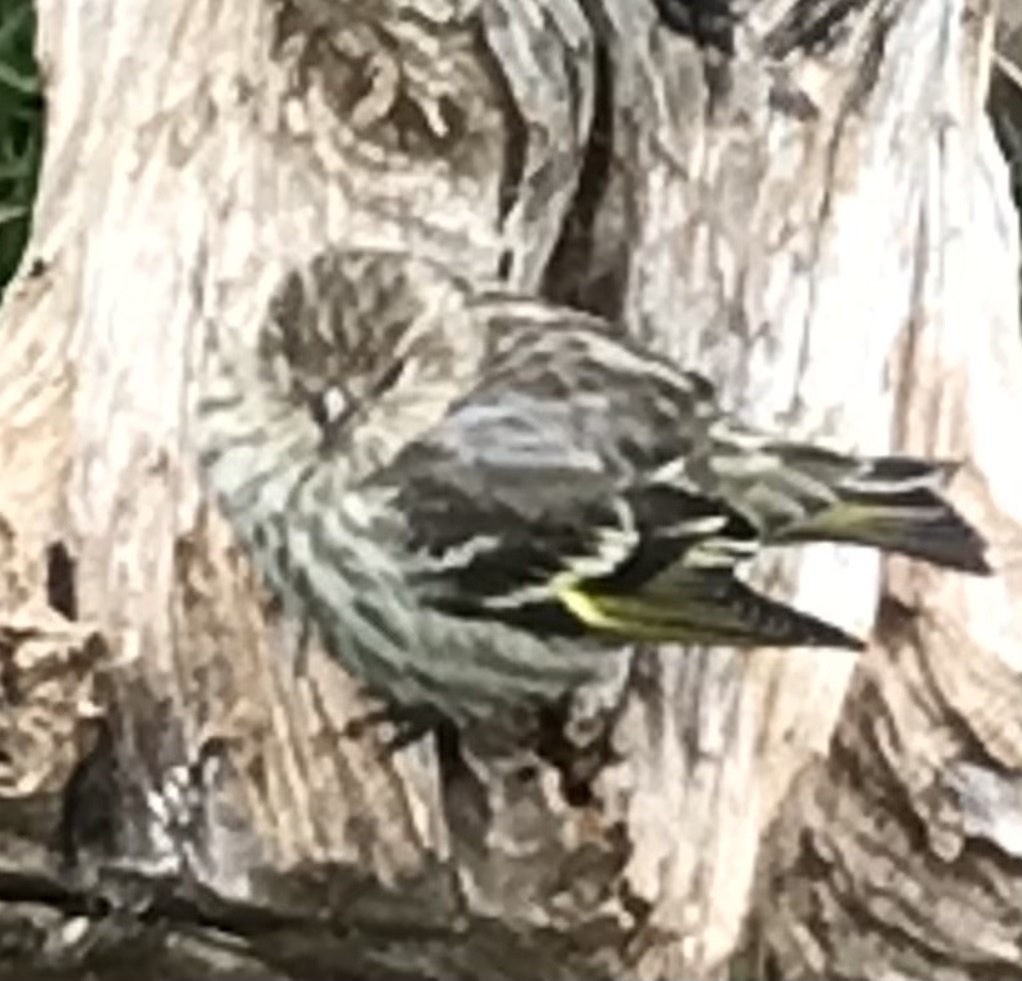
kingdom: Animalia
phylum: Chordata
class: Aves
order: Passeriformes
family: Fringillidae
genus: Spinus
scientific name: Spinus pinus
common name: Pine siskin
